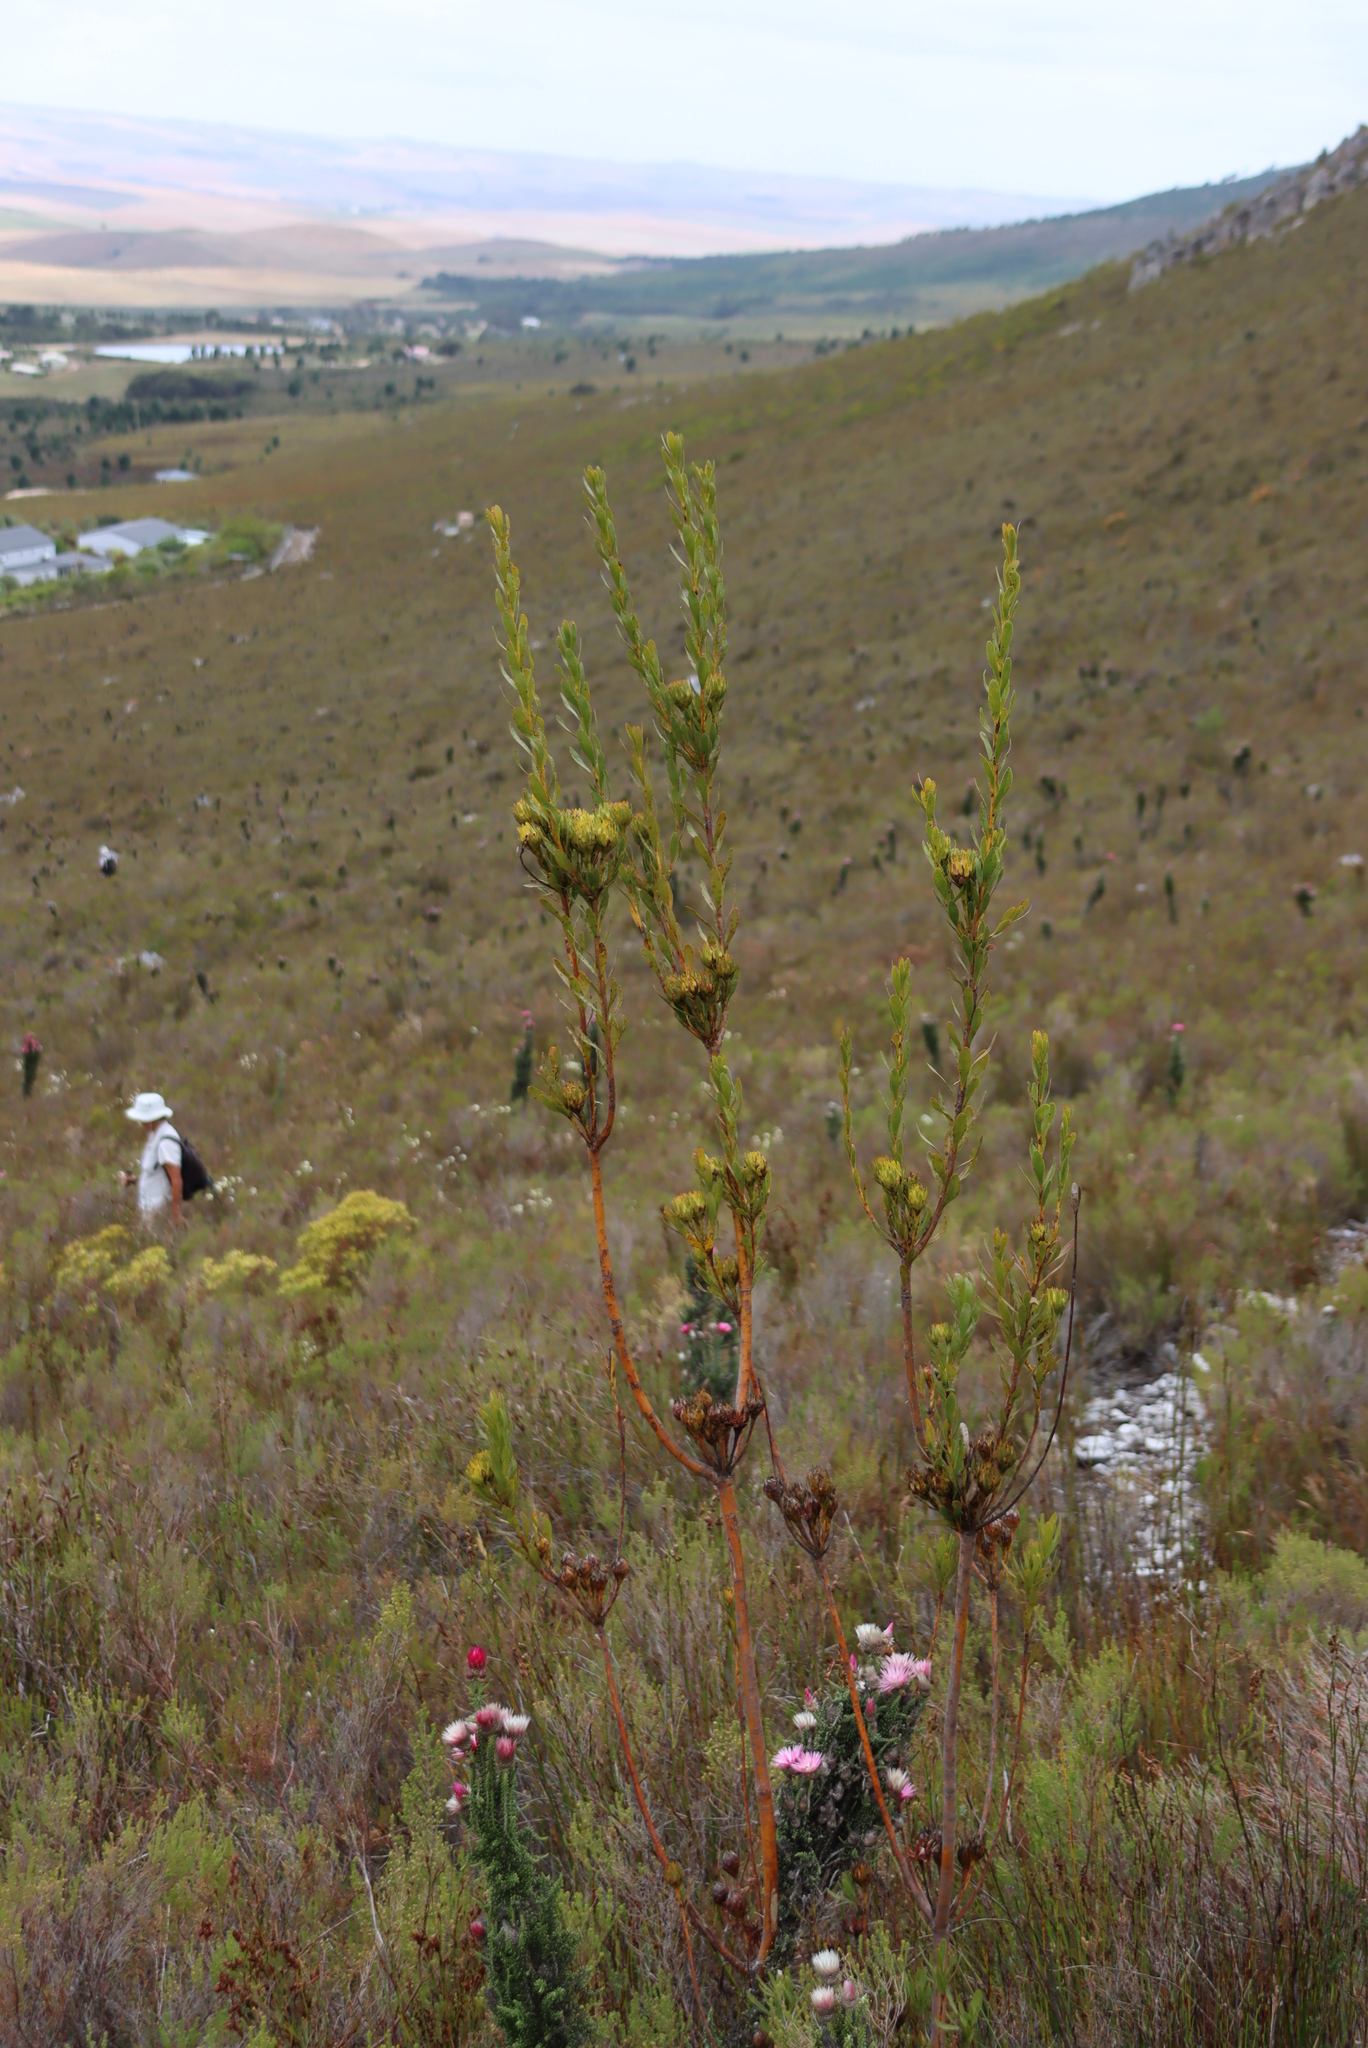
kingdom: Plantae
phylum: Tracheophyta
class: Magnoliopsida
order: Proteales
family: Proteaceae
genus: Aulax
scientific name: Aulax umbellata
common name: Broad-leaf featherbush
